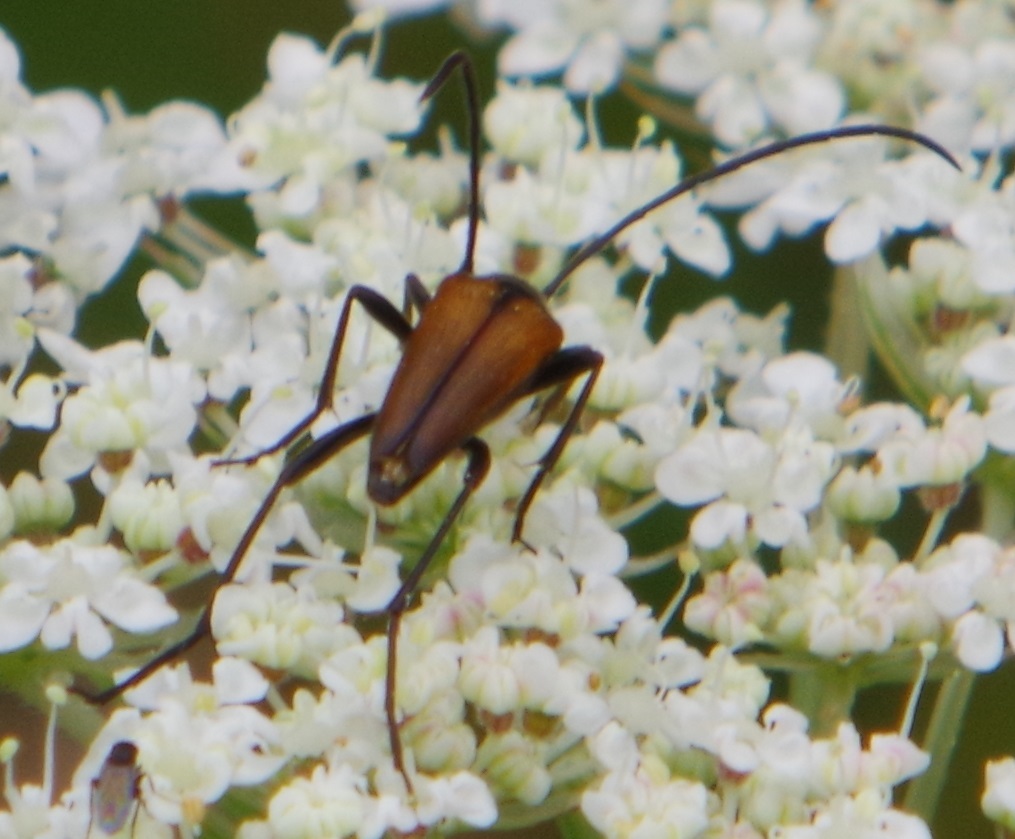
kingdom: Animalia
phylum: Arthropoda
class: Insecta
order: Coleoptera
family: Cerambycidae
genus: Stenurella
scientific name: Stenurella melanura
